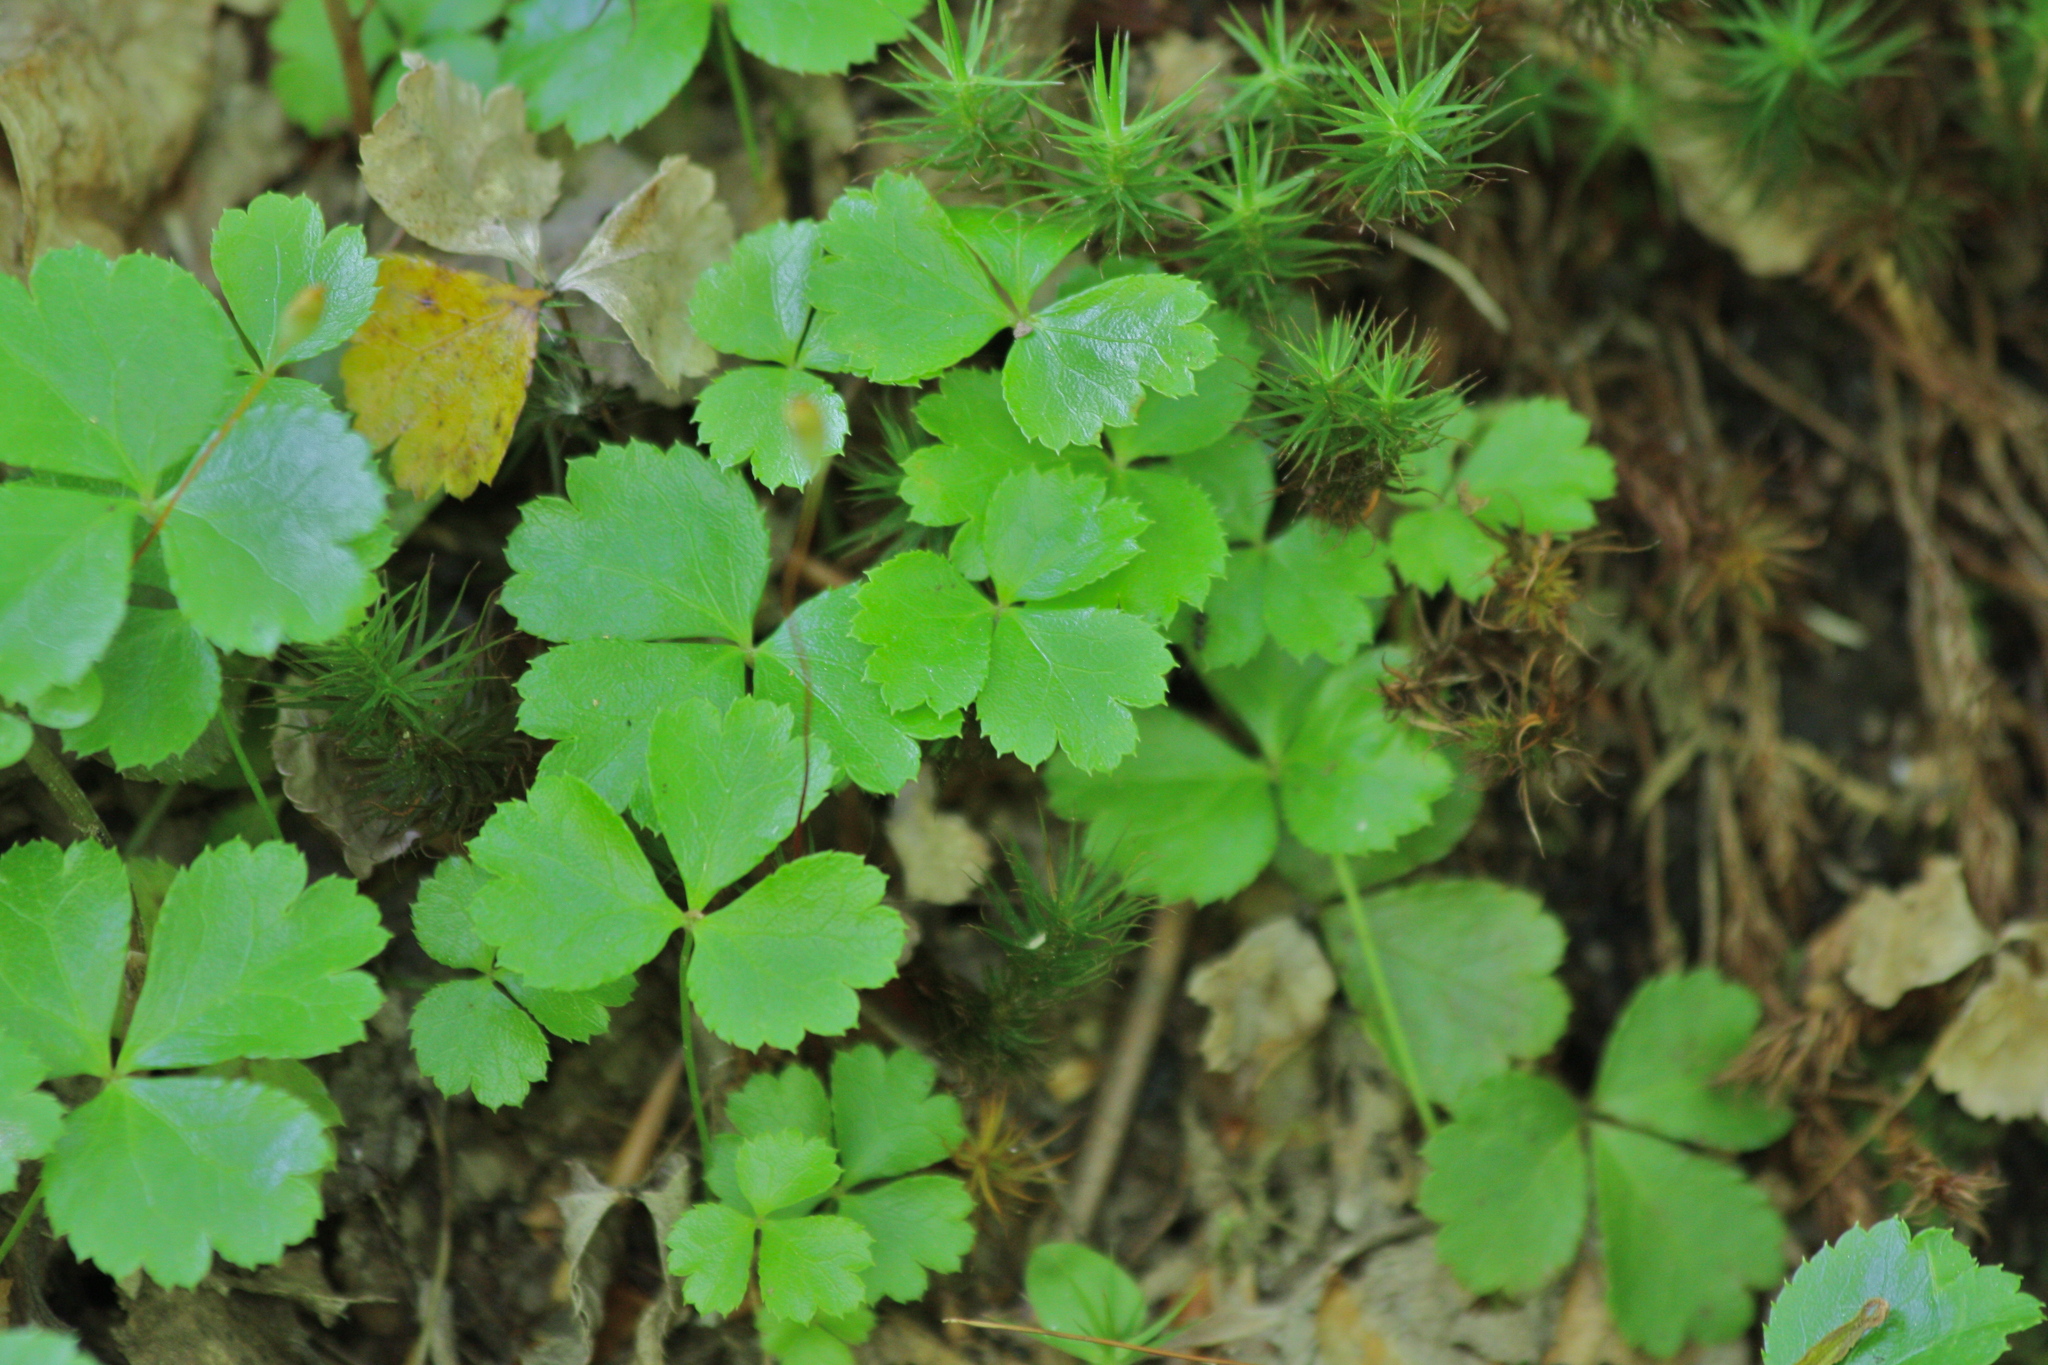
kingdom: Plantae
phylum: Tracheophyta
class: Magnoliopsida
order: Ranunculales
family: Ranunculaceae
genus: Coptis
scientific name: Coptis trifolia
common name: Canker-root
